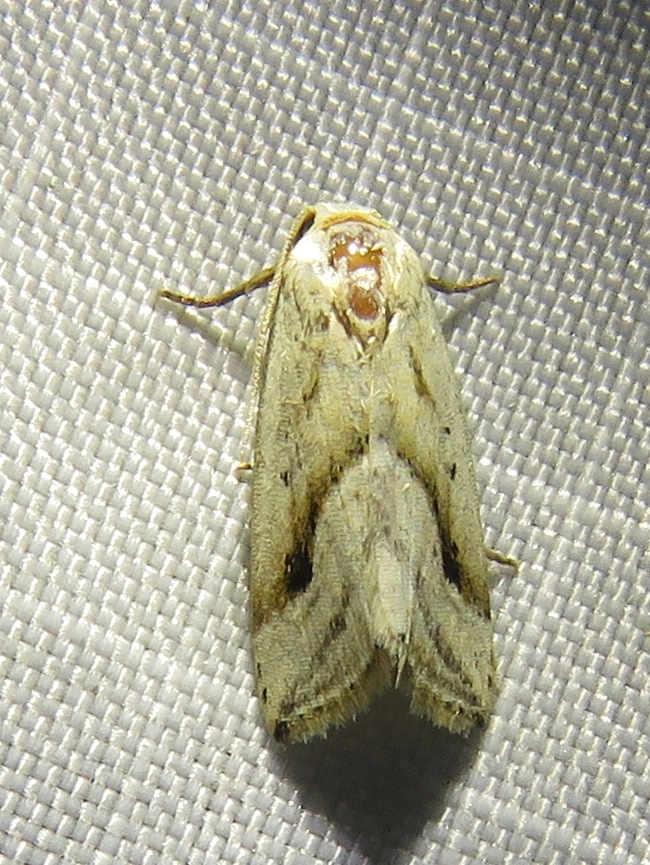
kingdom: Animalia
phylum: Arthropoda
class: Insecta
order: Lepidoptera
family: Noctuidae
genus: Micrathetis
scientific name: Micrathetis tecnion
